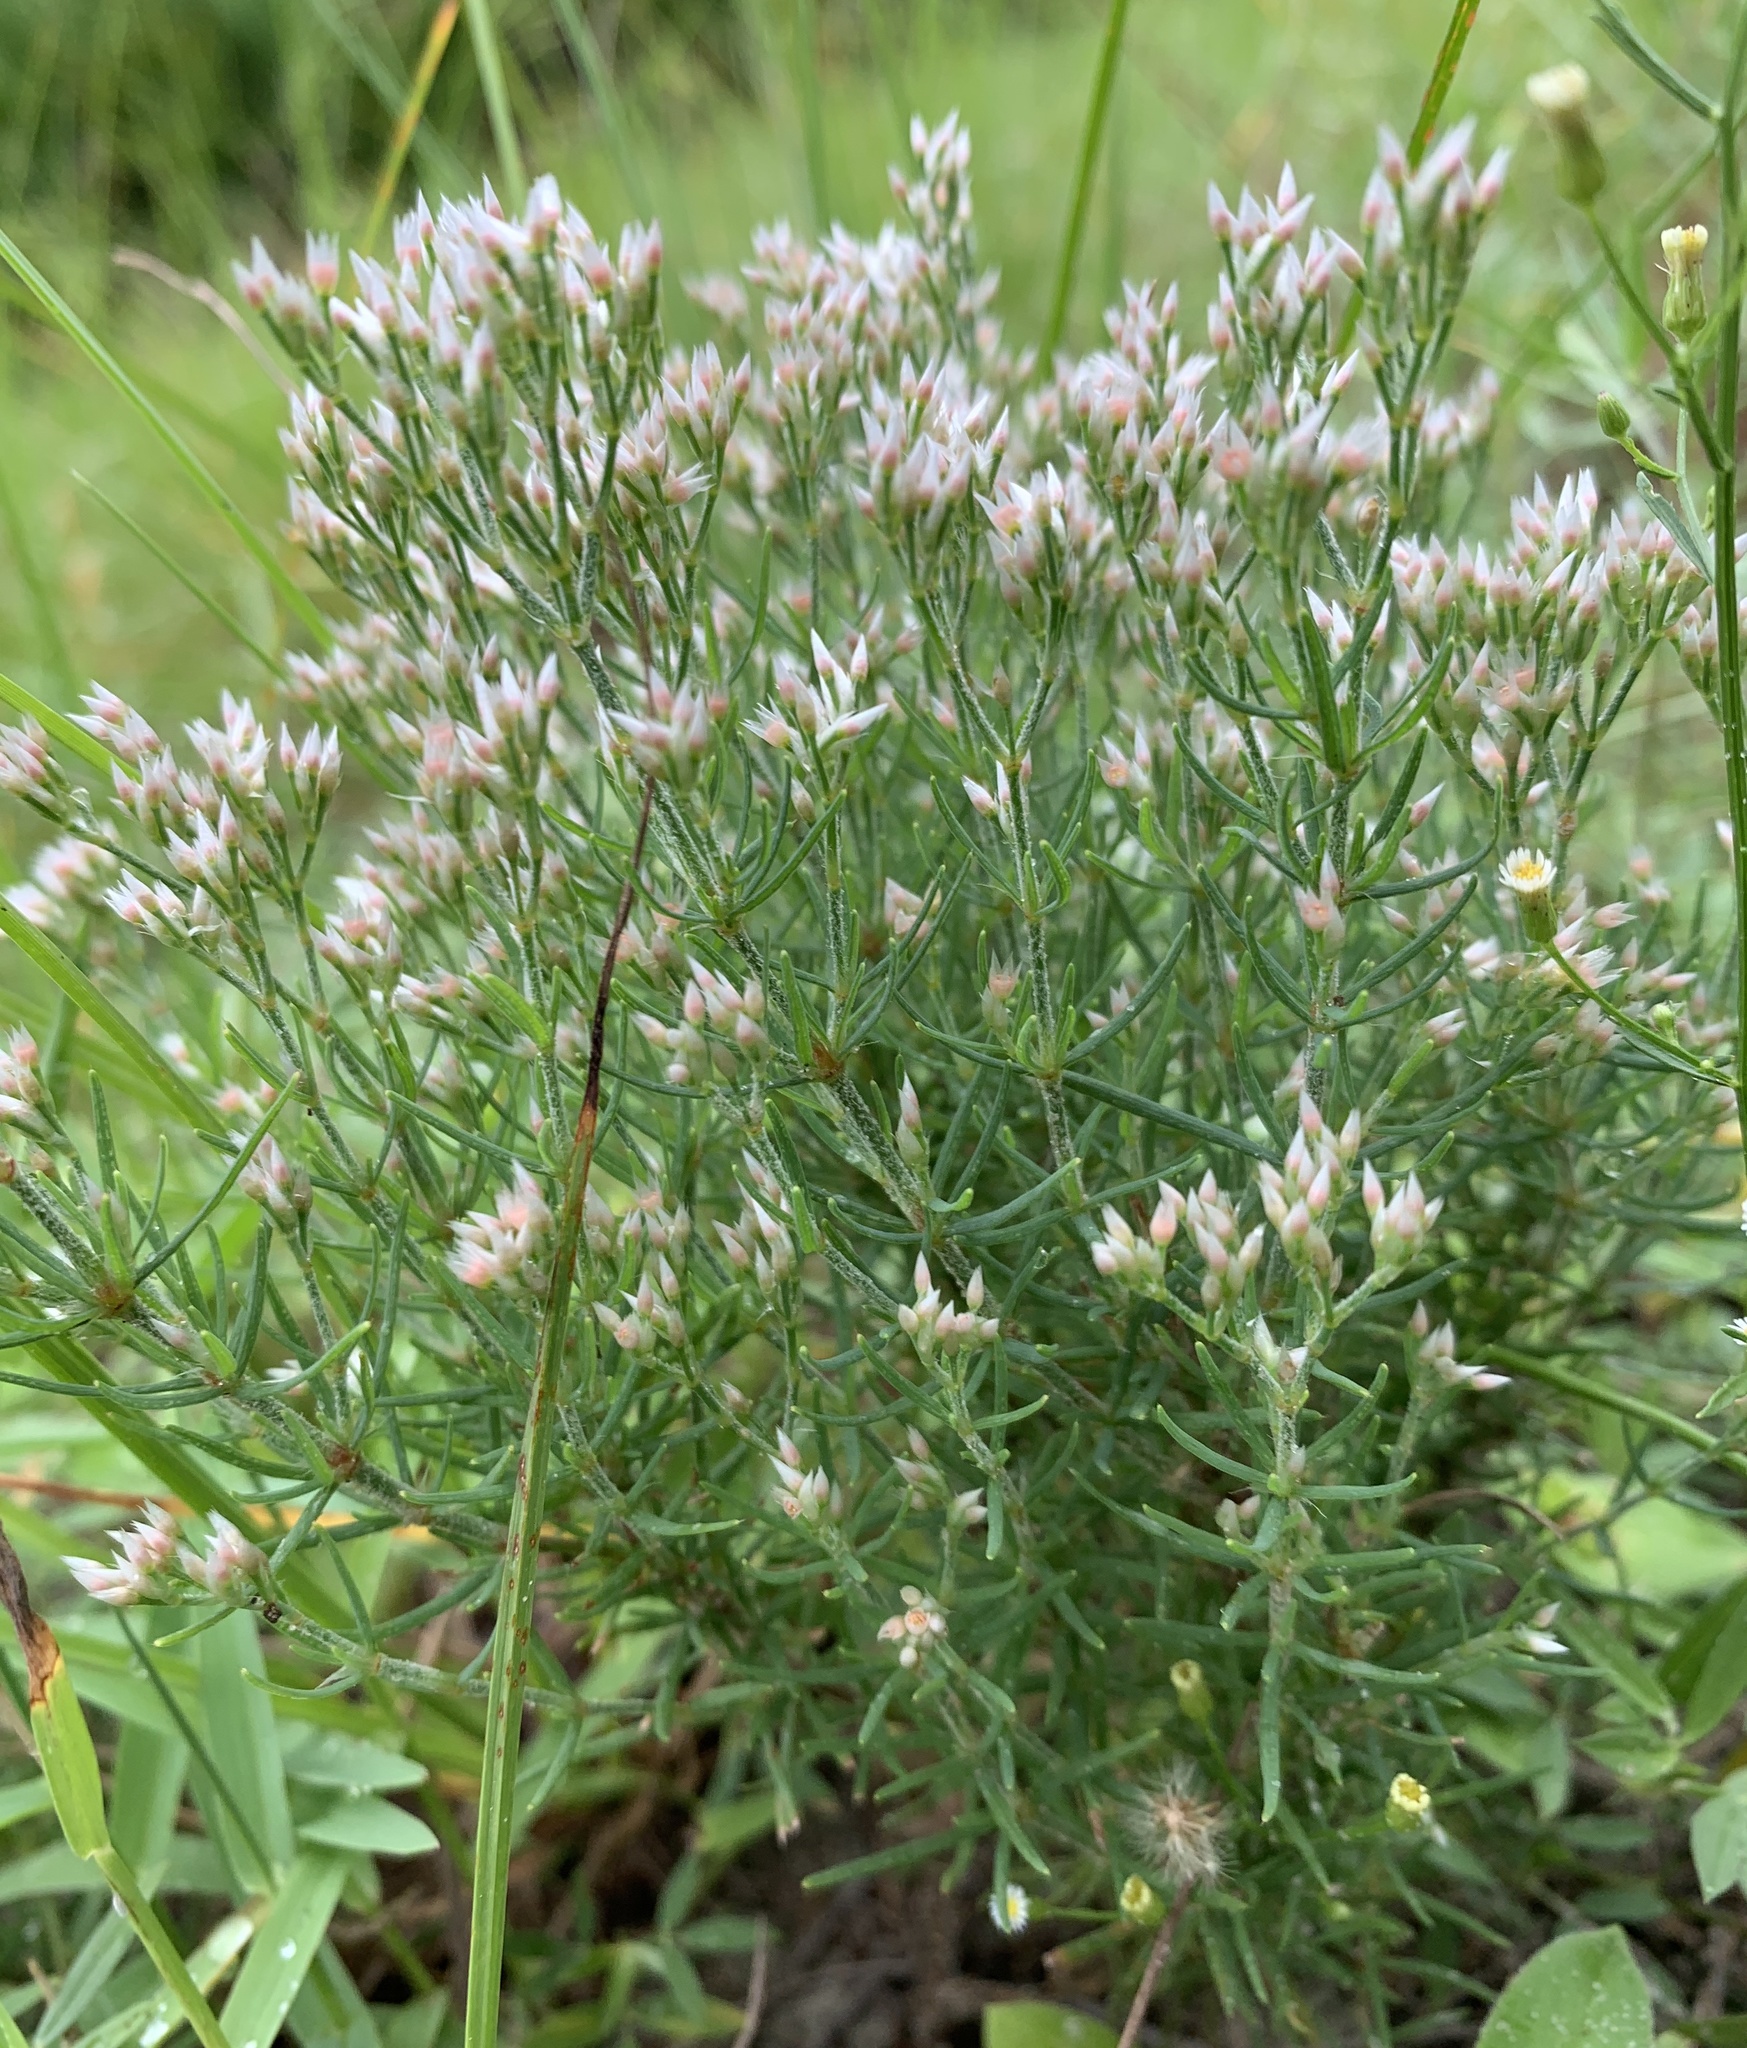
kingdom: Plantae
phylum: Tracheophyta
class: Magnoliopsida
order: Caryophyllales
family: Caryophyllaceae
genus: Polycarpaea
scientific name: Polycarpaea corymbosa
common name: Oldman's cap
